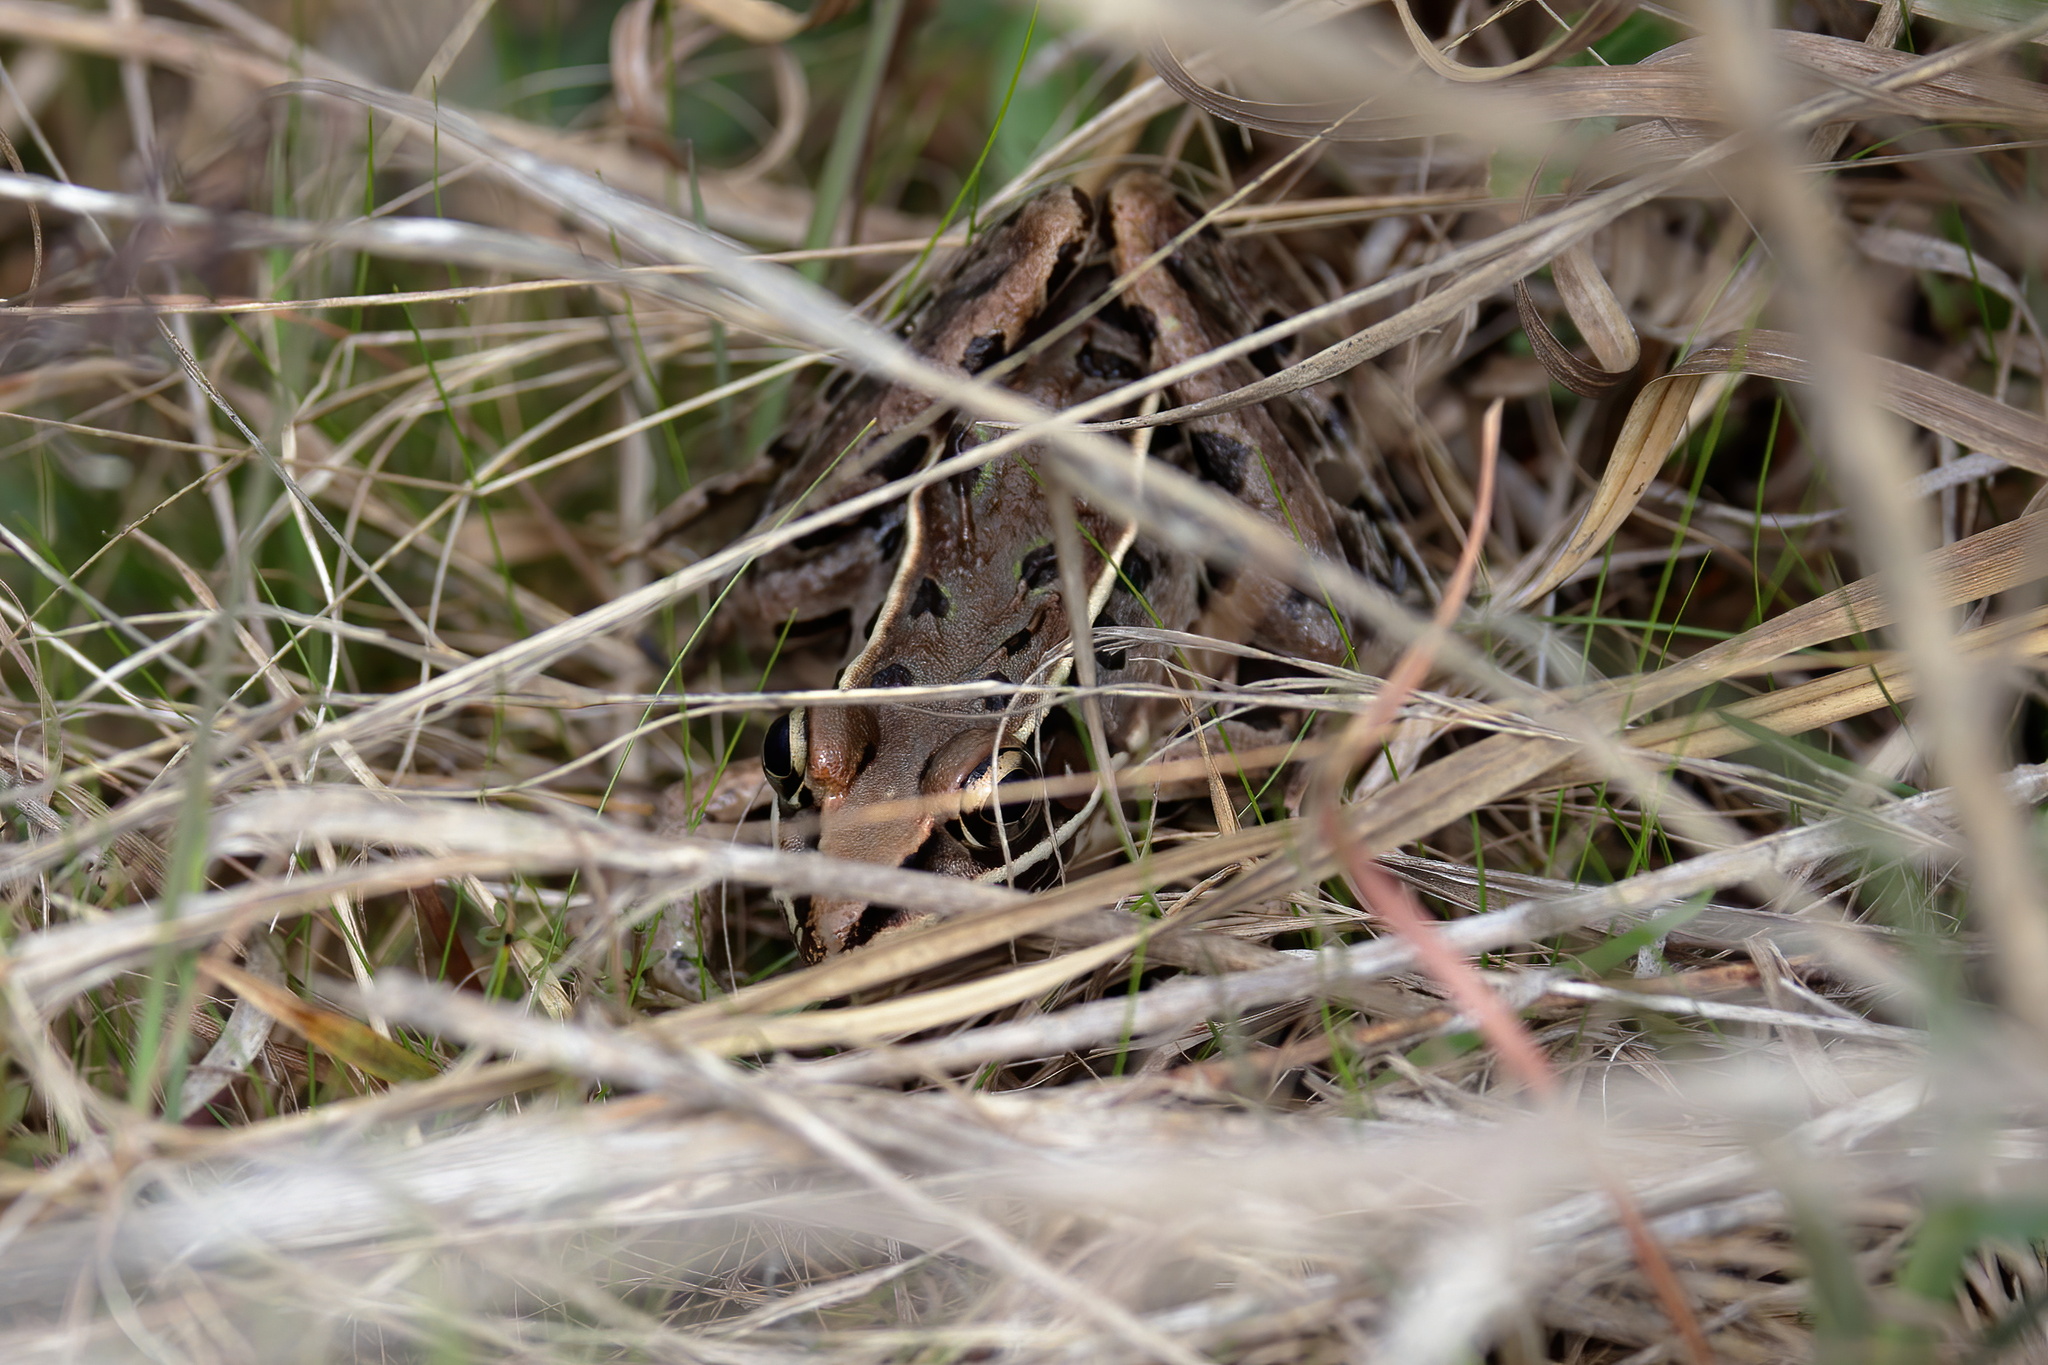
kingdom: Animalia
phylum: Chordata
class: Amphibia
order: Anura
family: Ranidae
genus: Lithobates
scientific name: Lithobates sphenocephalus
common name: Southern leopard frog
